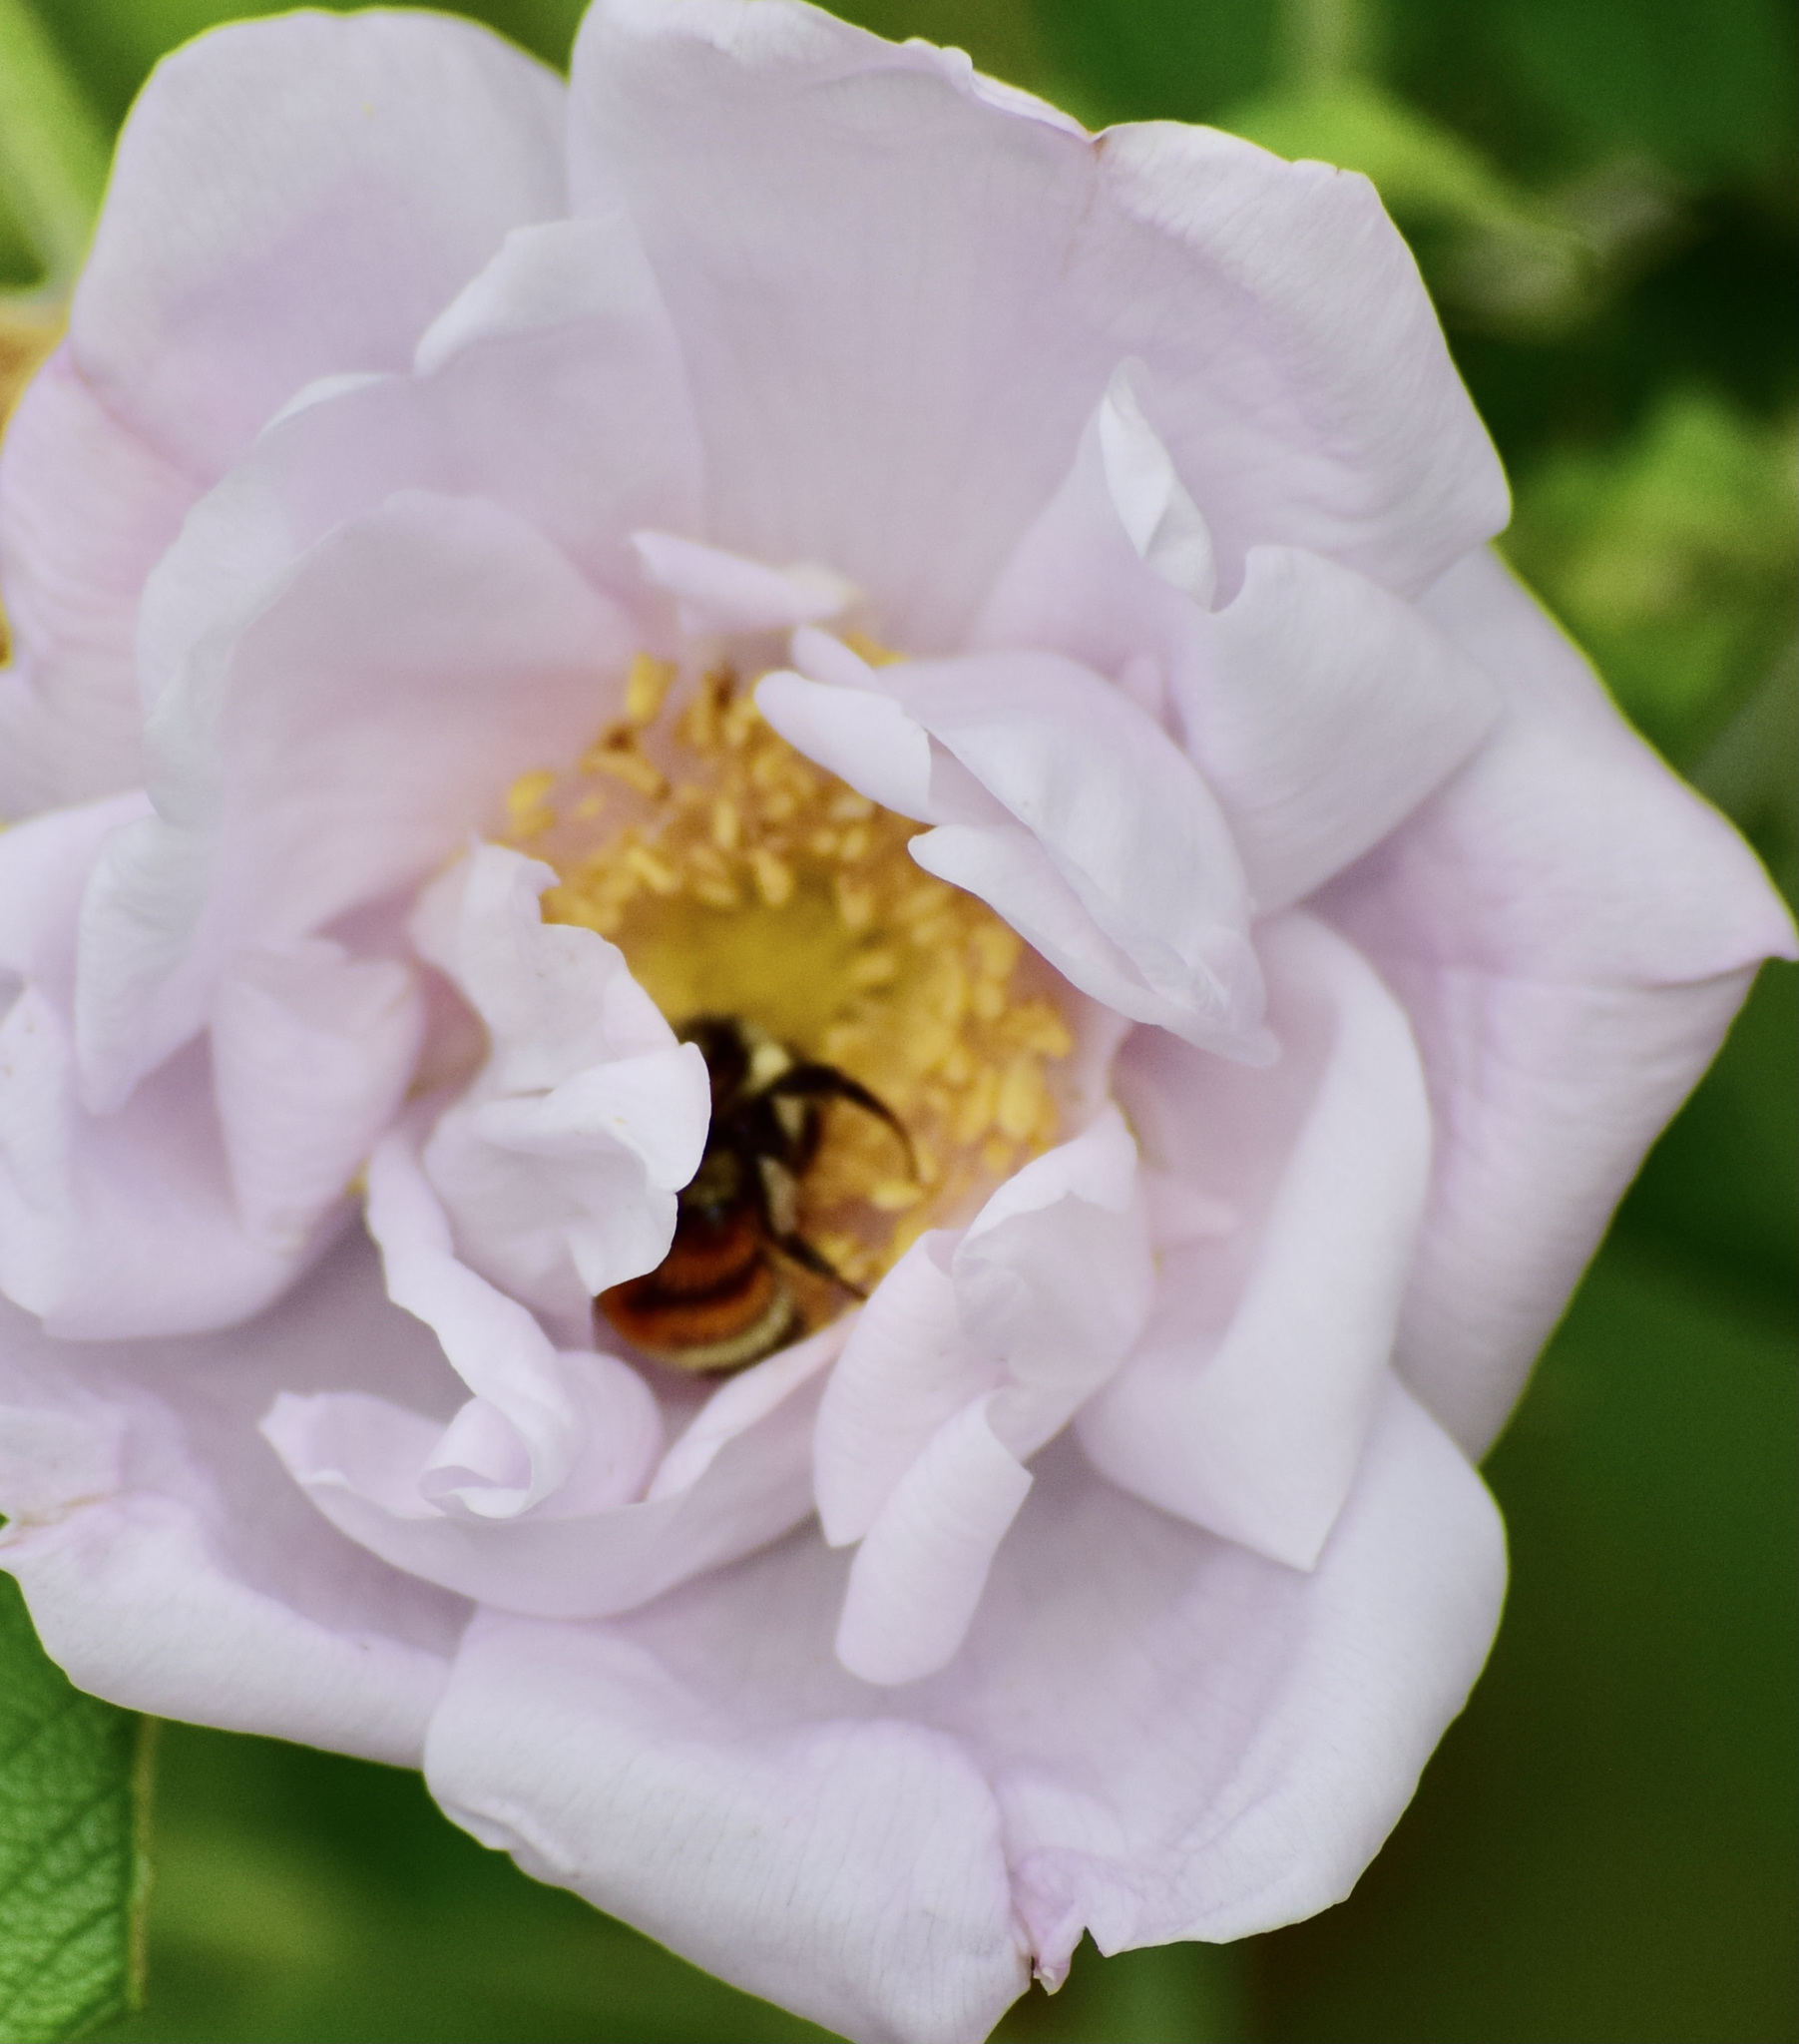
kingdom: Animalia
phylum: Arthropoda
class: Insecta
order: Hymenoptera
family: Apidae
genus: Bombus
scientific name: Bombus ternarius
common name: Tri-colored bumble bee
